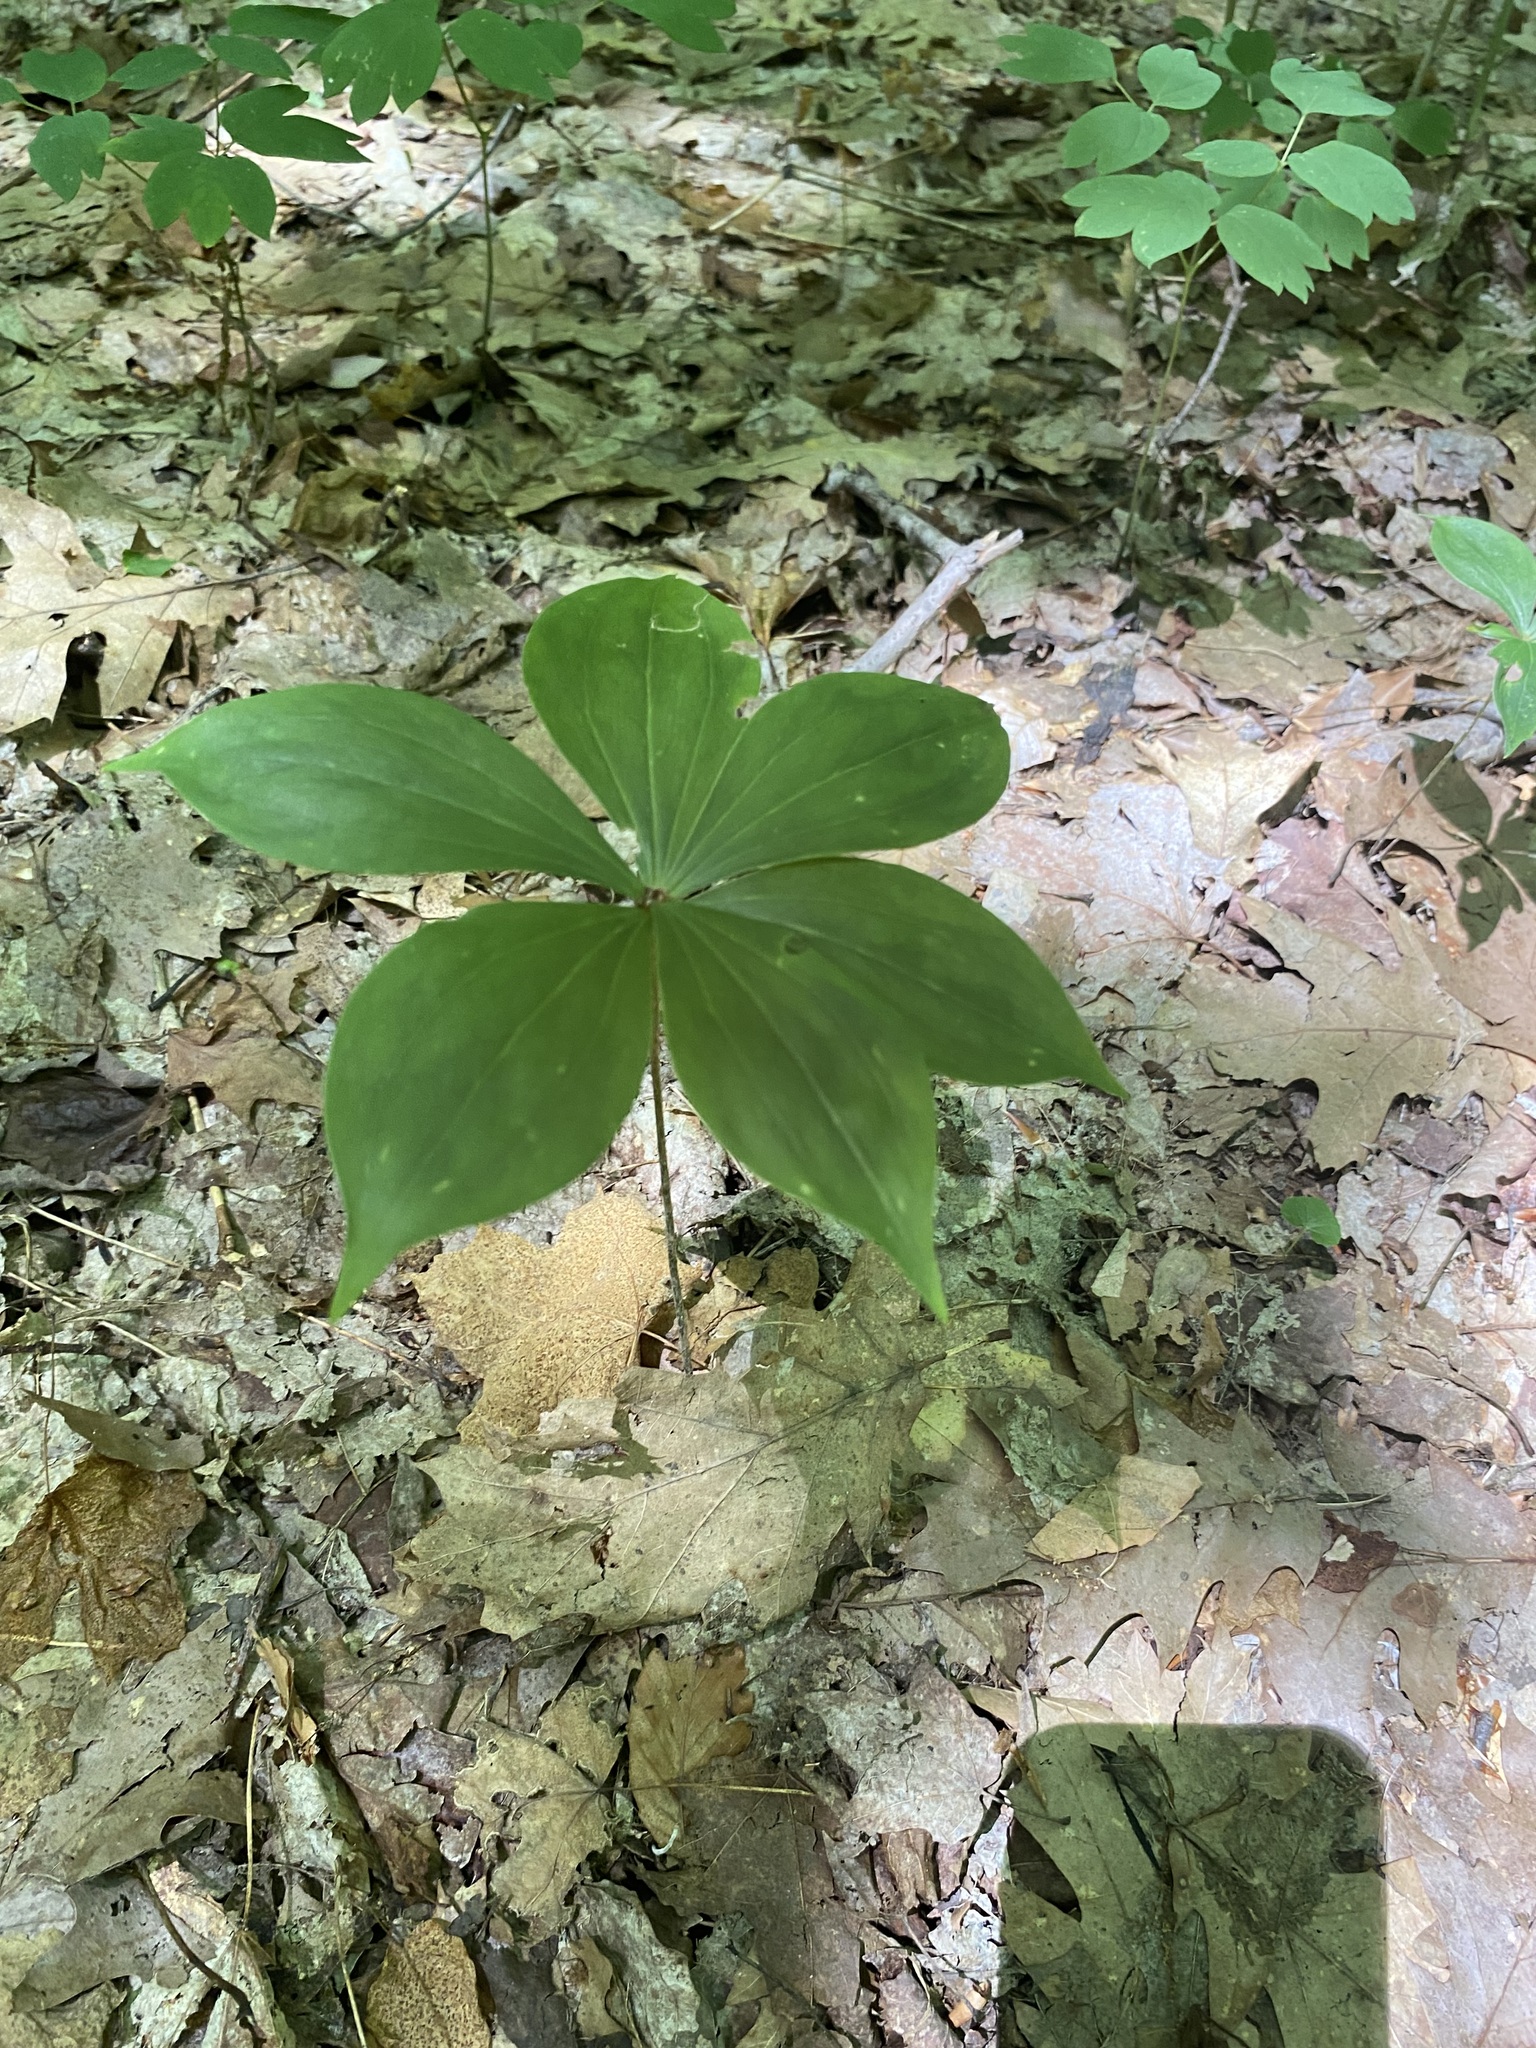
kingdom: Plantae
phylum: Tracheophyta
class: Liliopsida
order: Liliales
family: Liliaceae
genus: Medeola
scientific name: Medeola virginiana
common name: Indian cucumber-root
